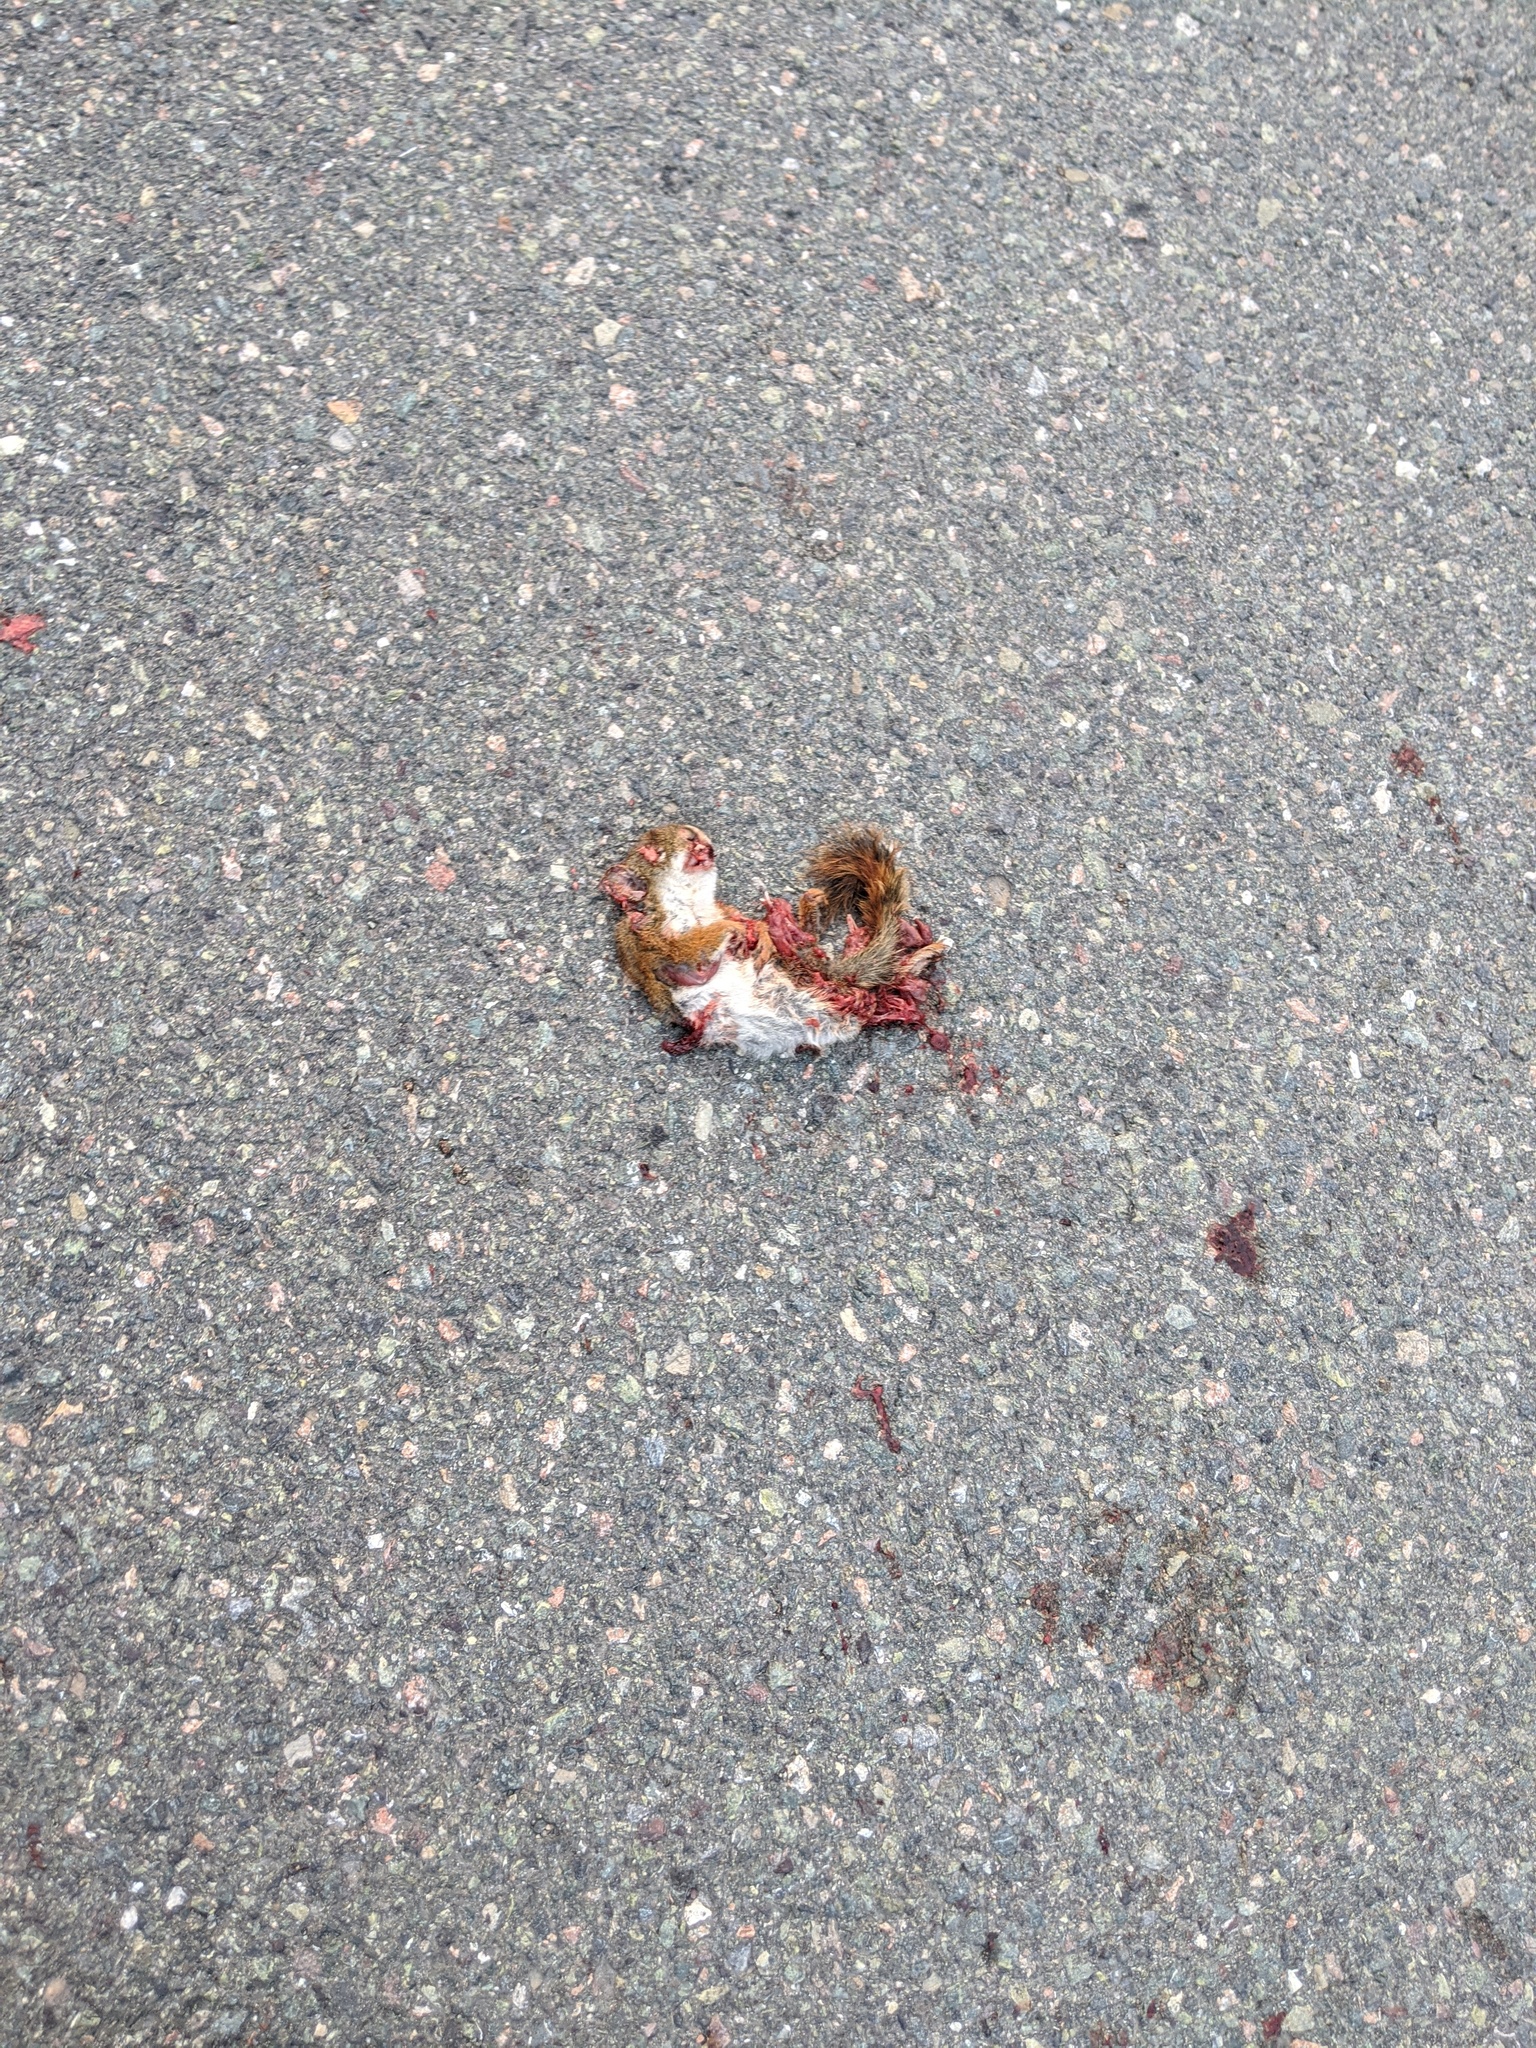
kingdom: Animalia
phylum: Chordata
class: Mammalia
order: Rodentia
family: Sciuridae
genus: Tamiasciurus
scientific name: Tamiasciurus hudsonicus
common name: Red squirrel
